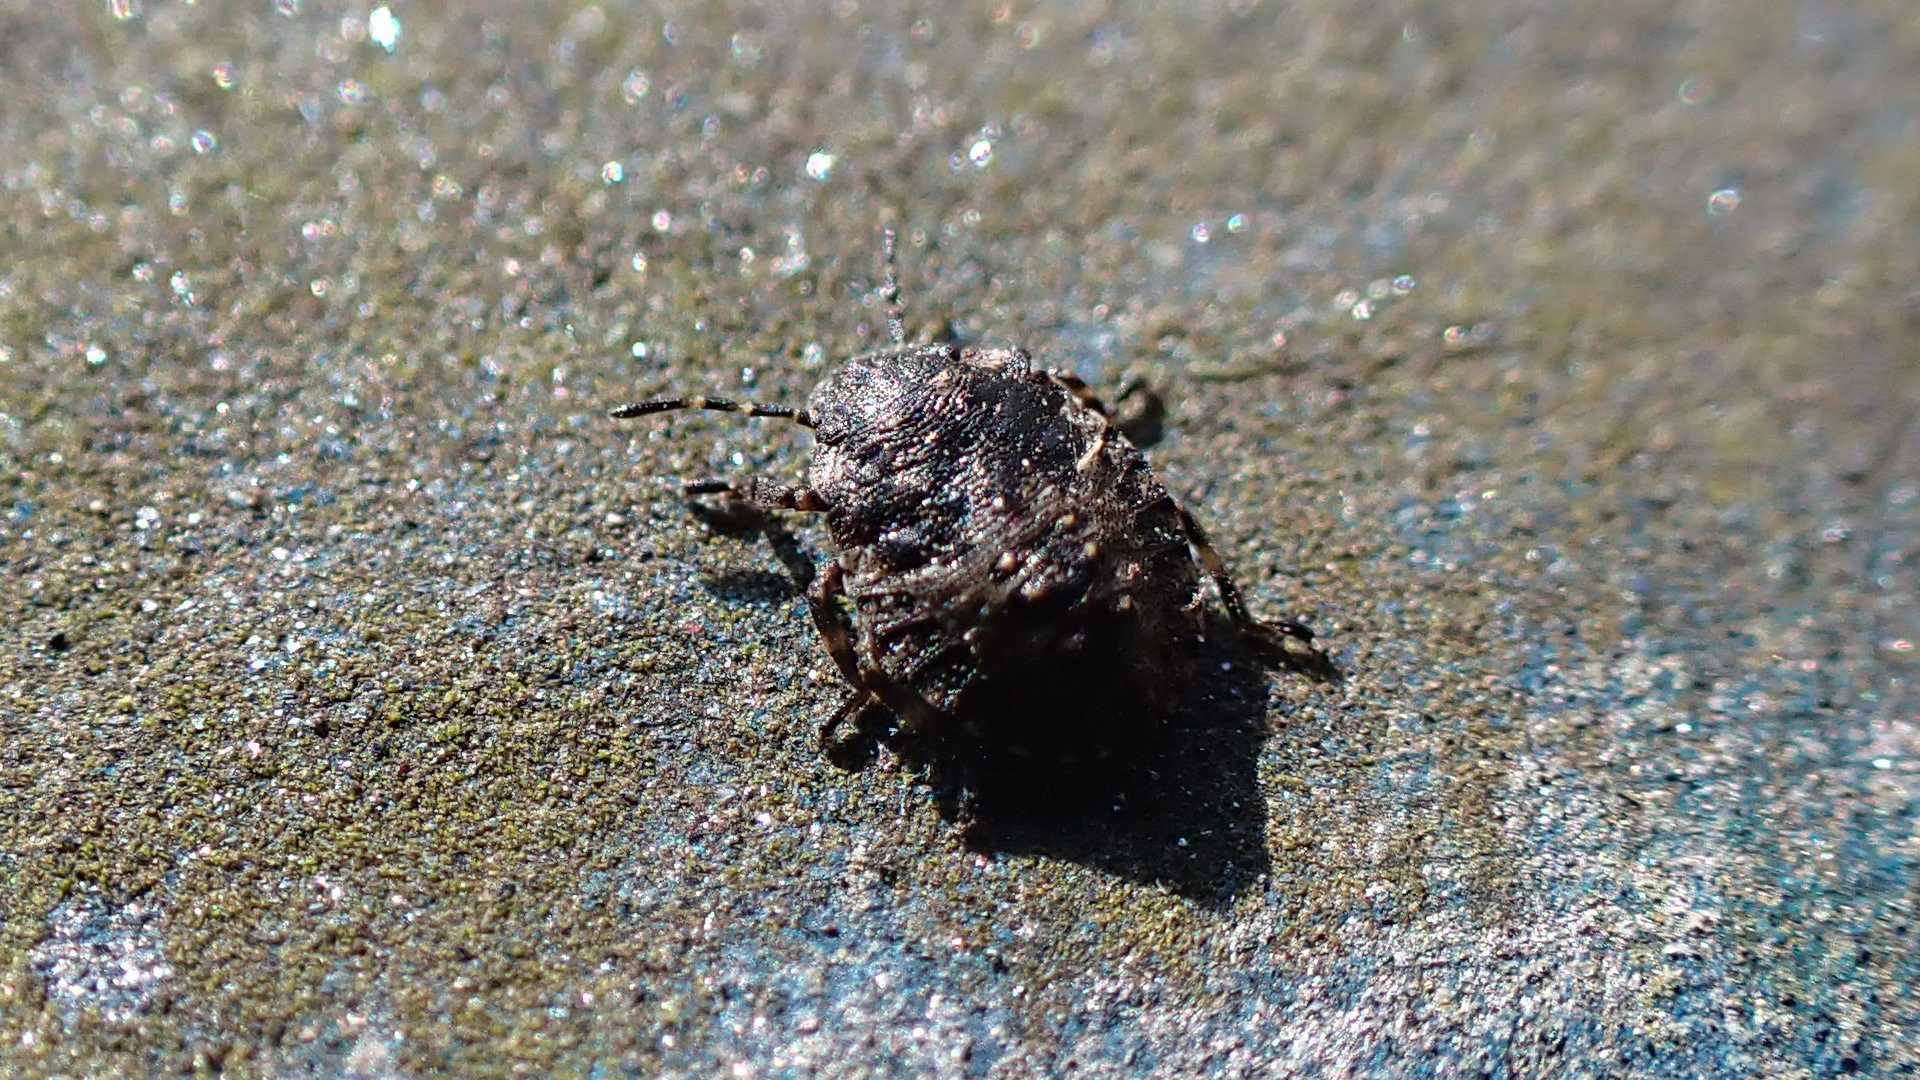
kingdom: Animalia
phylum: Arthropoda
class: Insecta
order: Hemiptera
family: Pentatomidae
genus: Pentatoma
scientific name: Pentatoma rufipes
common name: Forest bug
